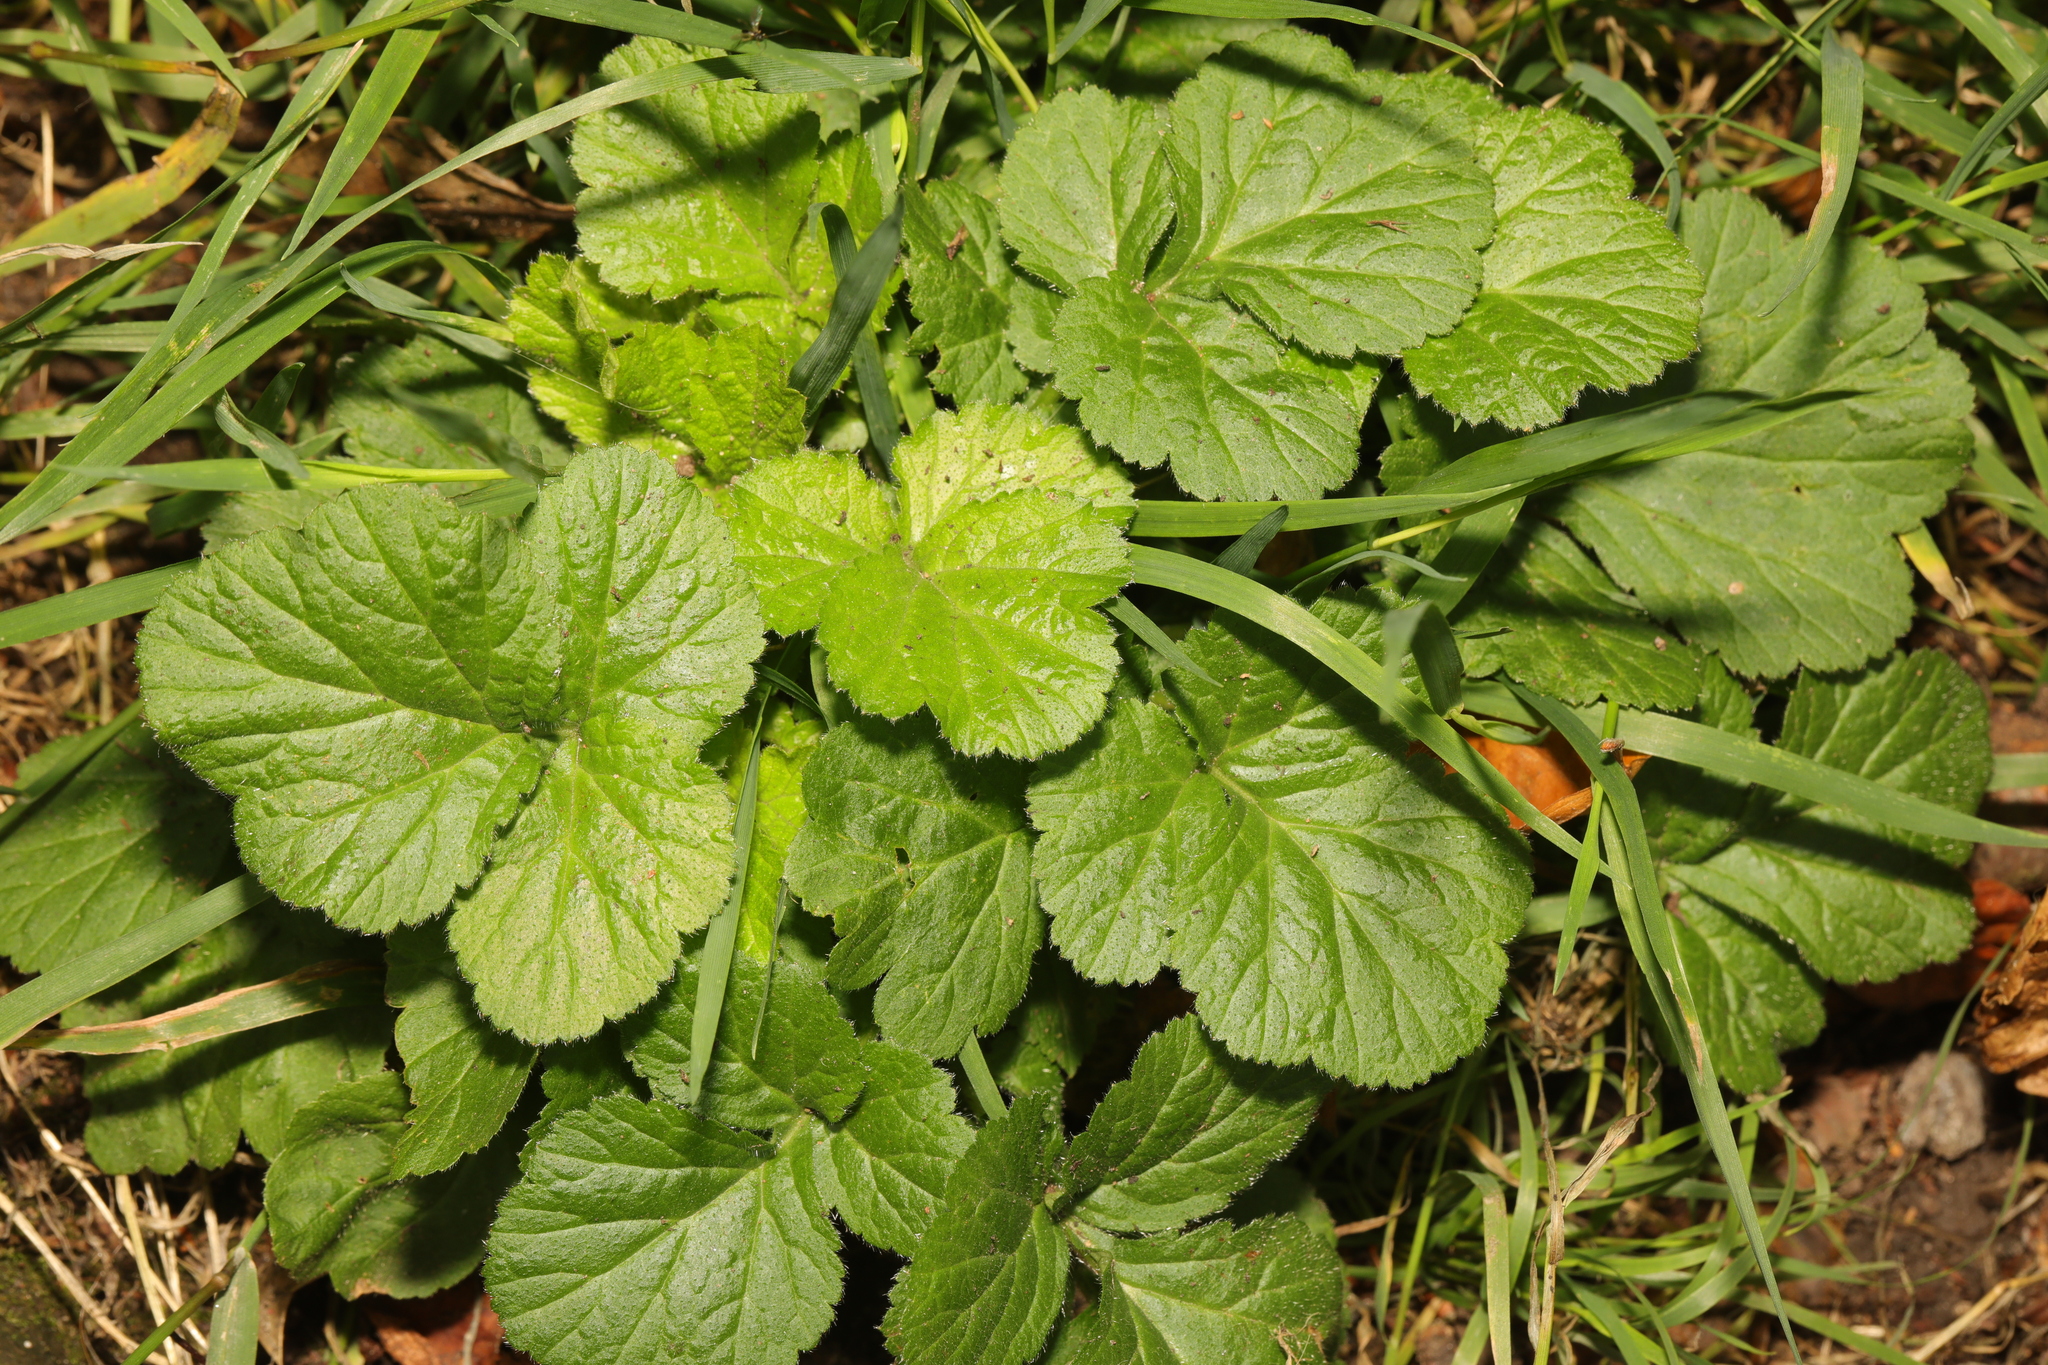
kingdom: Plantae
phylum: Tracheophyta
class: Magnoliopsida
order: Rosales
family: Rosaceae
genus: Geum
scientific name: Geum urbanum
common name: Wood avens
